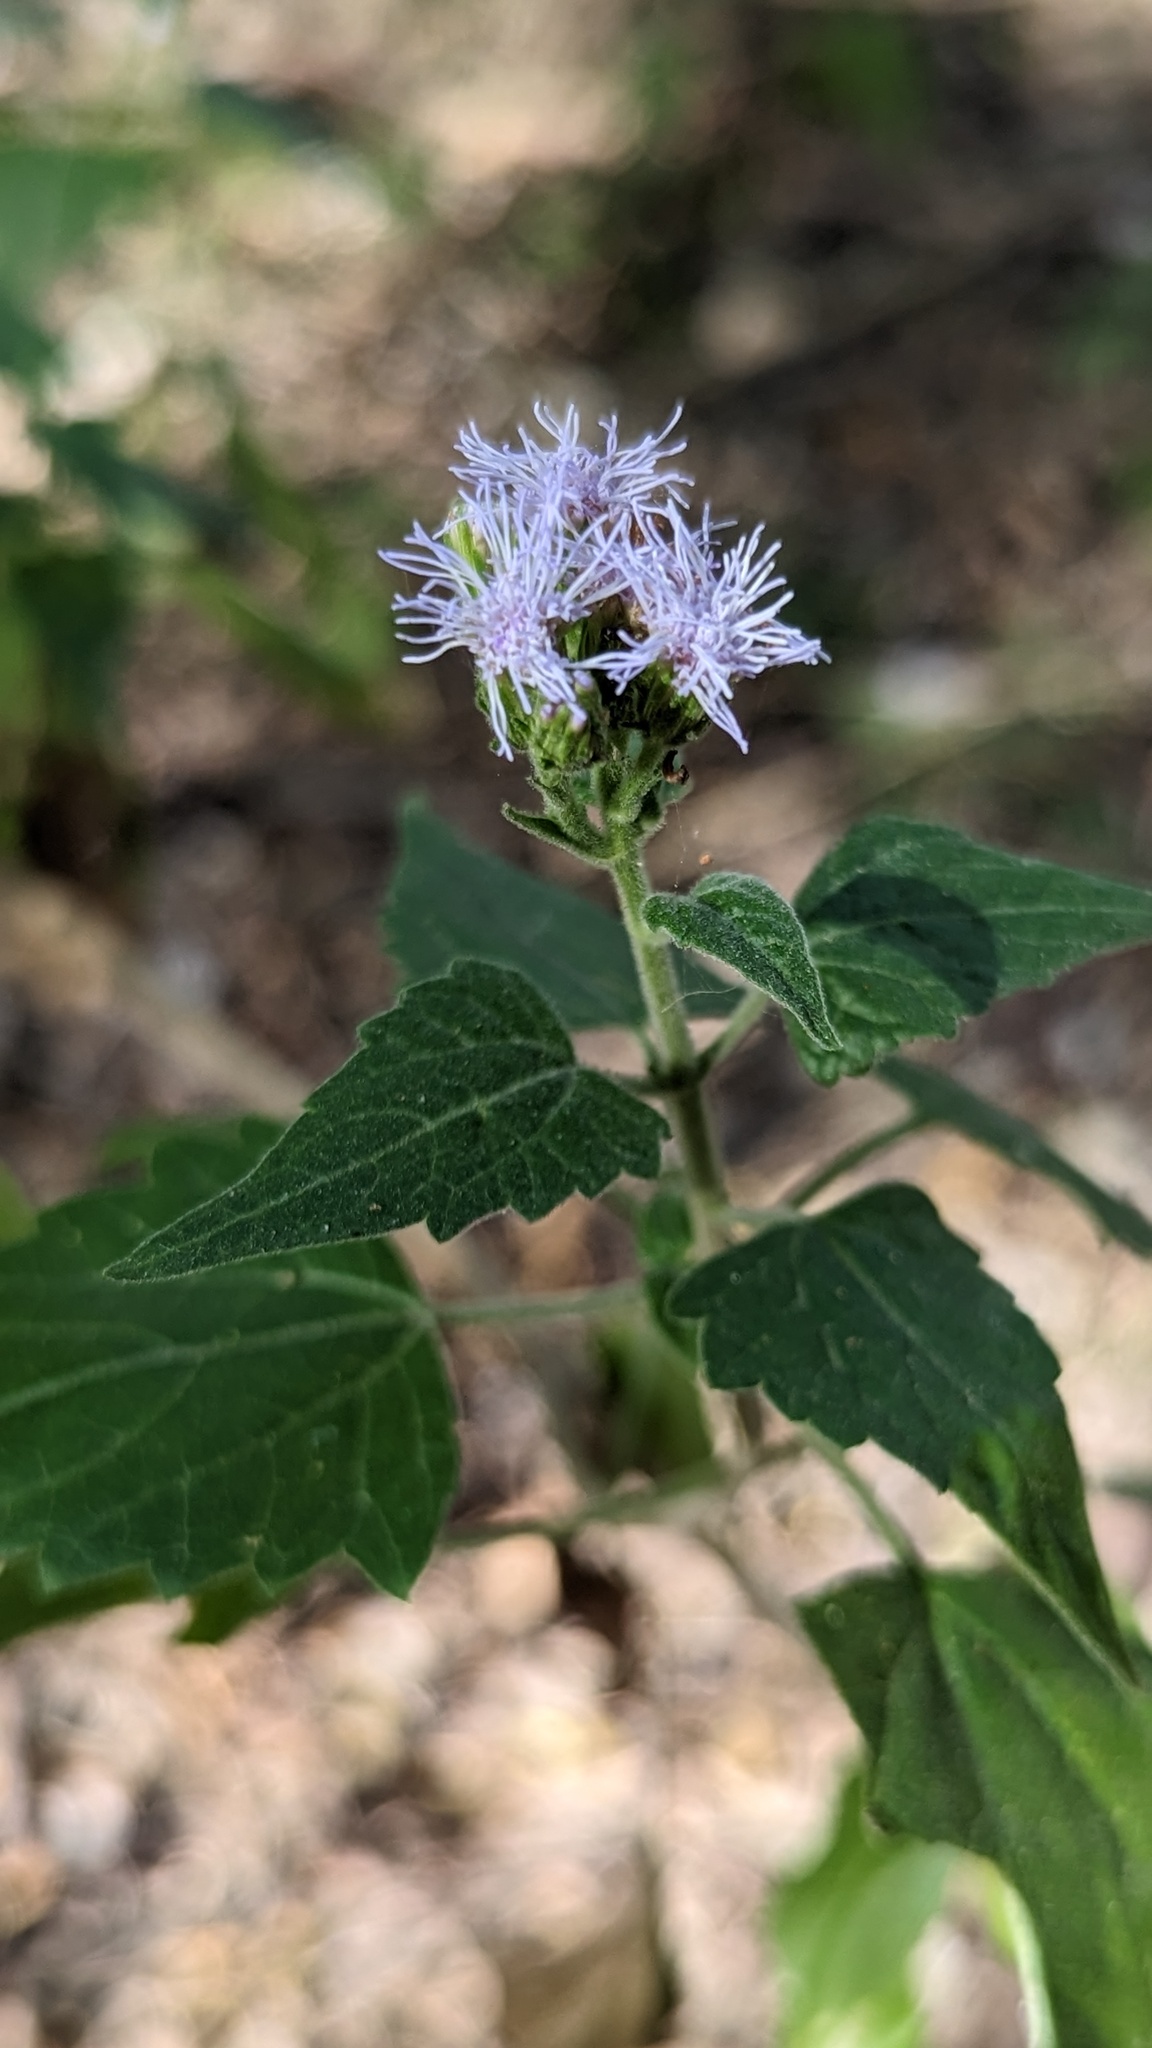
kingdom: Plantae
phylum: Tracheophyta
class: Magnoliopsida
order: Asterales
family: Asteraceae
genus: Tamaulipa
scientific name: Tamaulipa azurea
